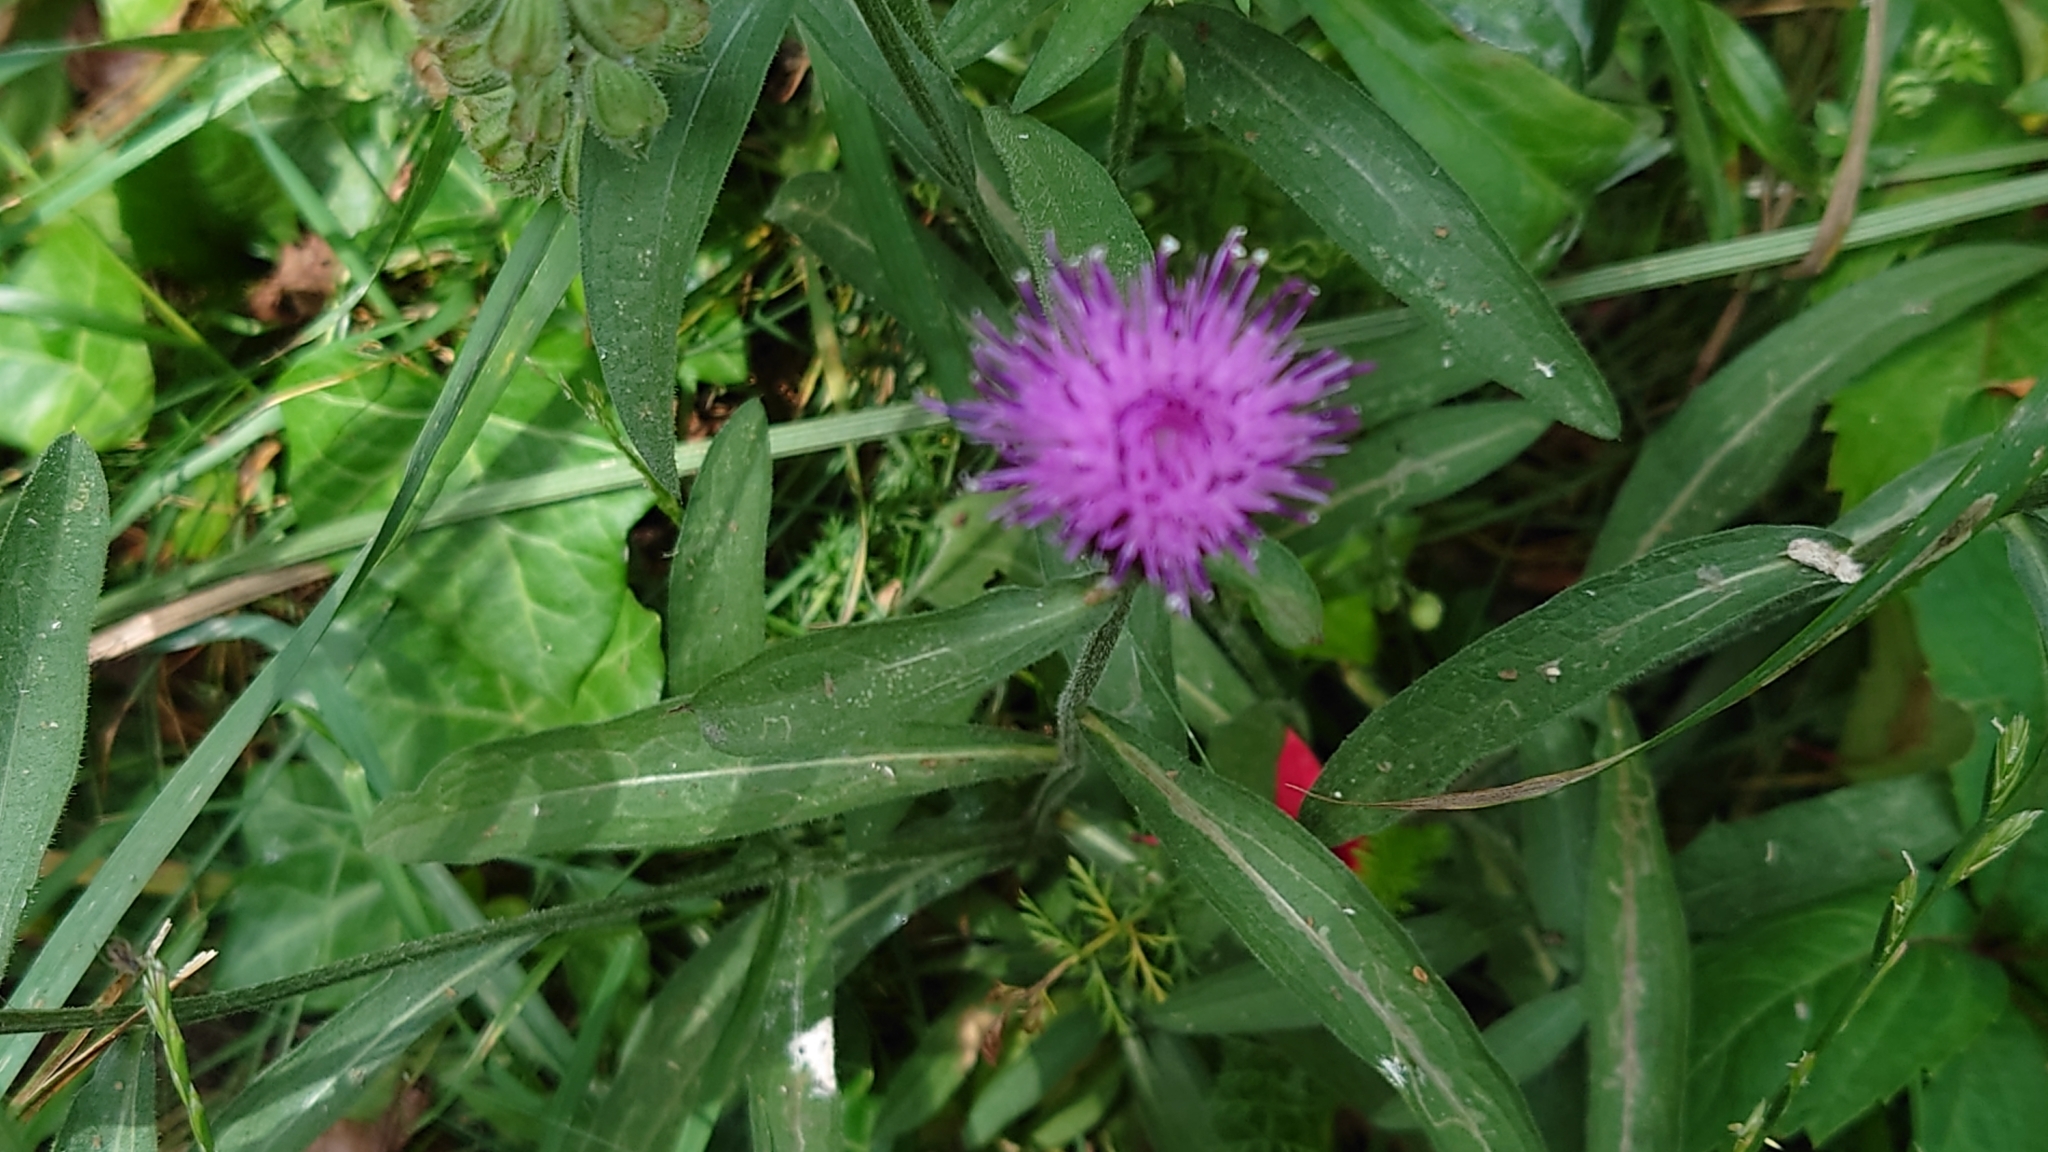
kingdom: Plantae
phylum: Tracheophyta
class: Magnoliopsida
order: Asterales
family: Asteraceae
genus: Centaurea
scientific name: Centaurea nigra
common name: Lesser knapweed
